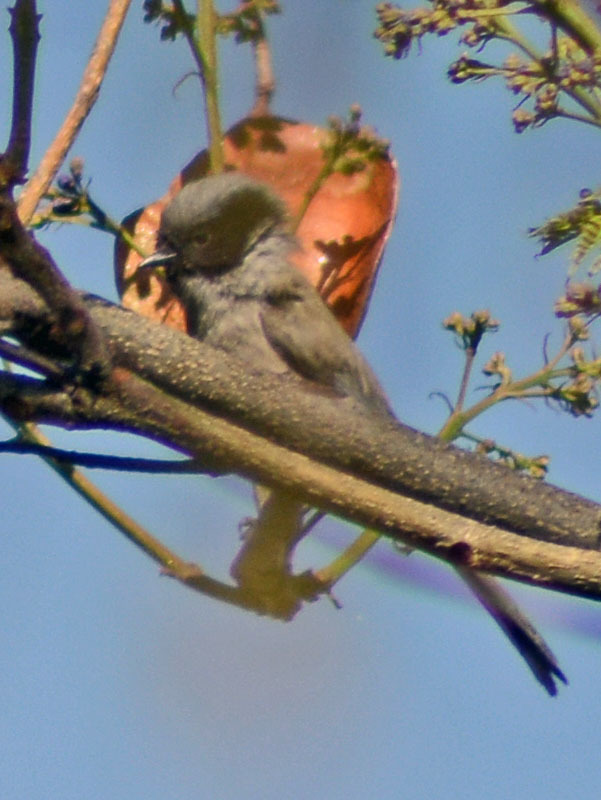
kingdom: Animalia
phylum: Chordata
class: Aves
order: Passeriformes
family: Aegithalidae
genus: Psaltriparus
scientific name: Psaltriparus minimus
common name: American bushtit
